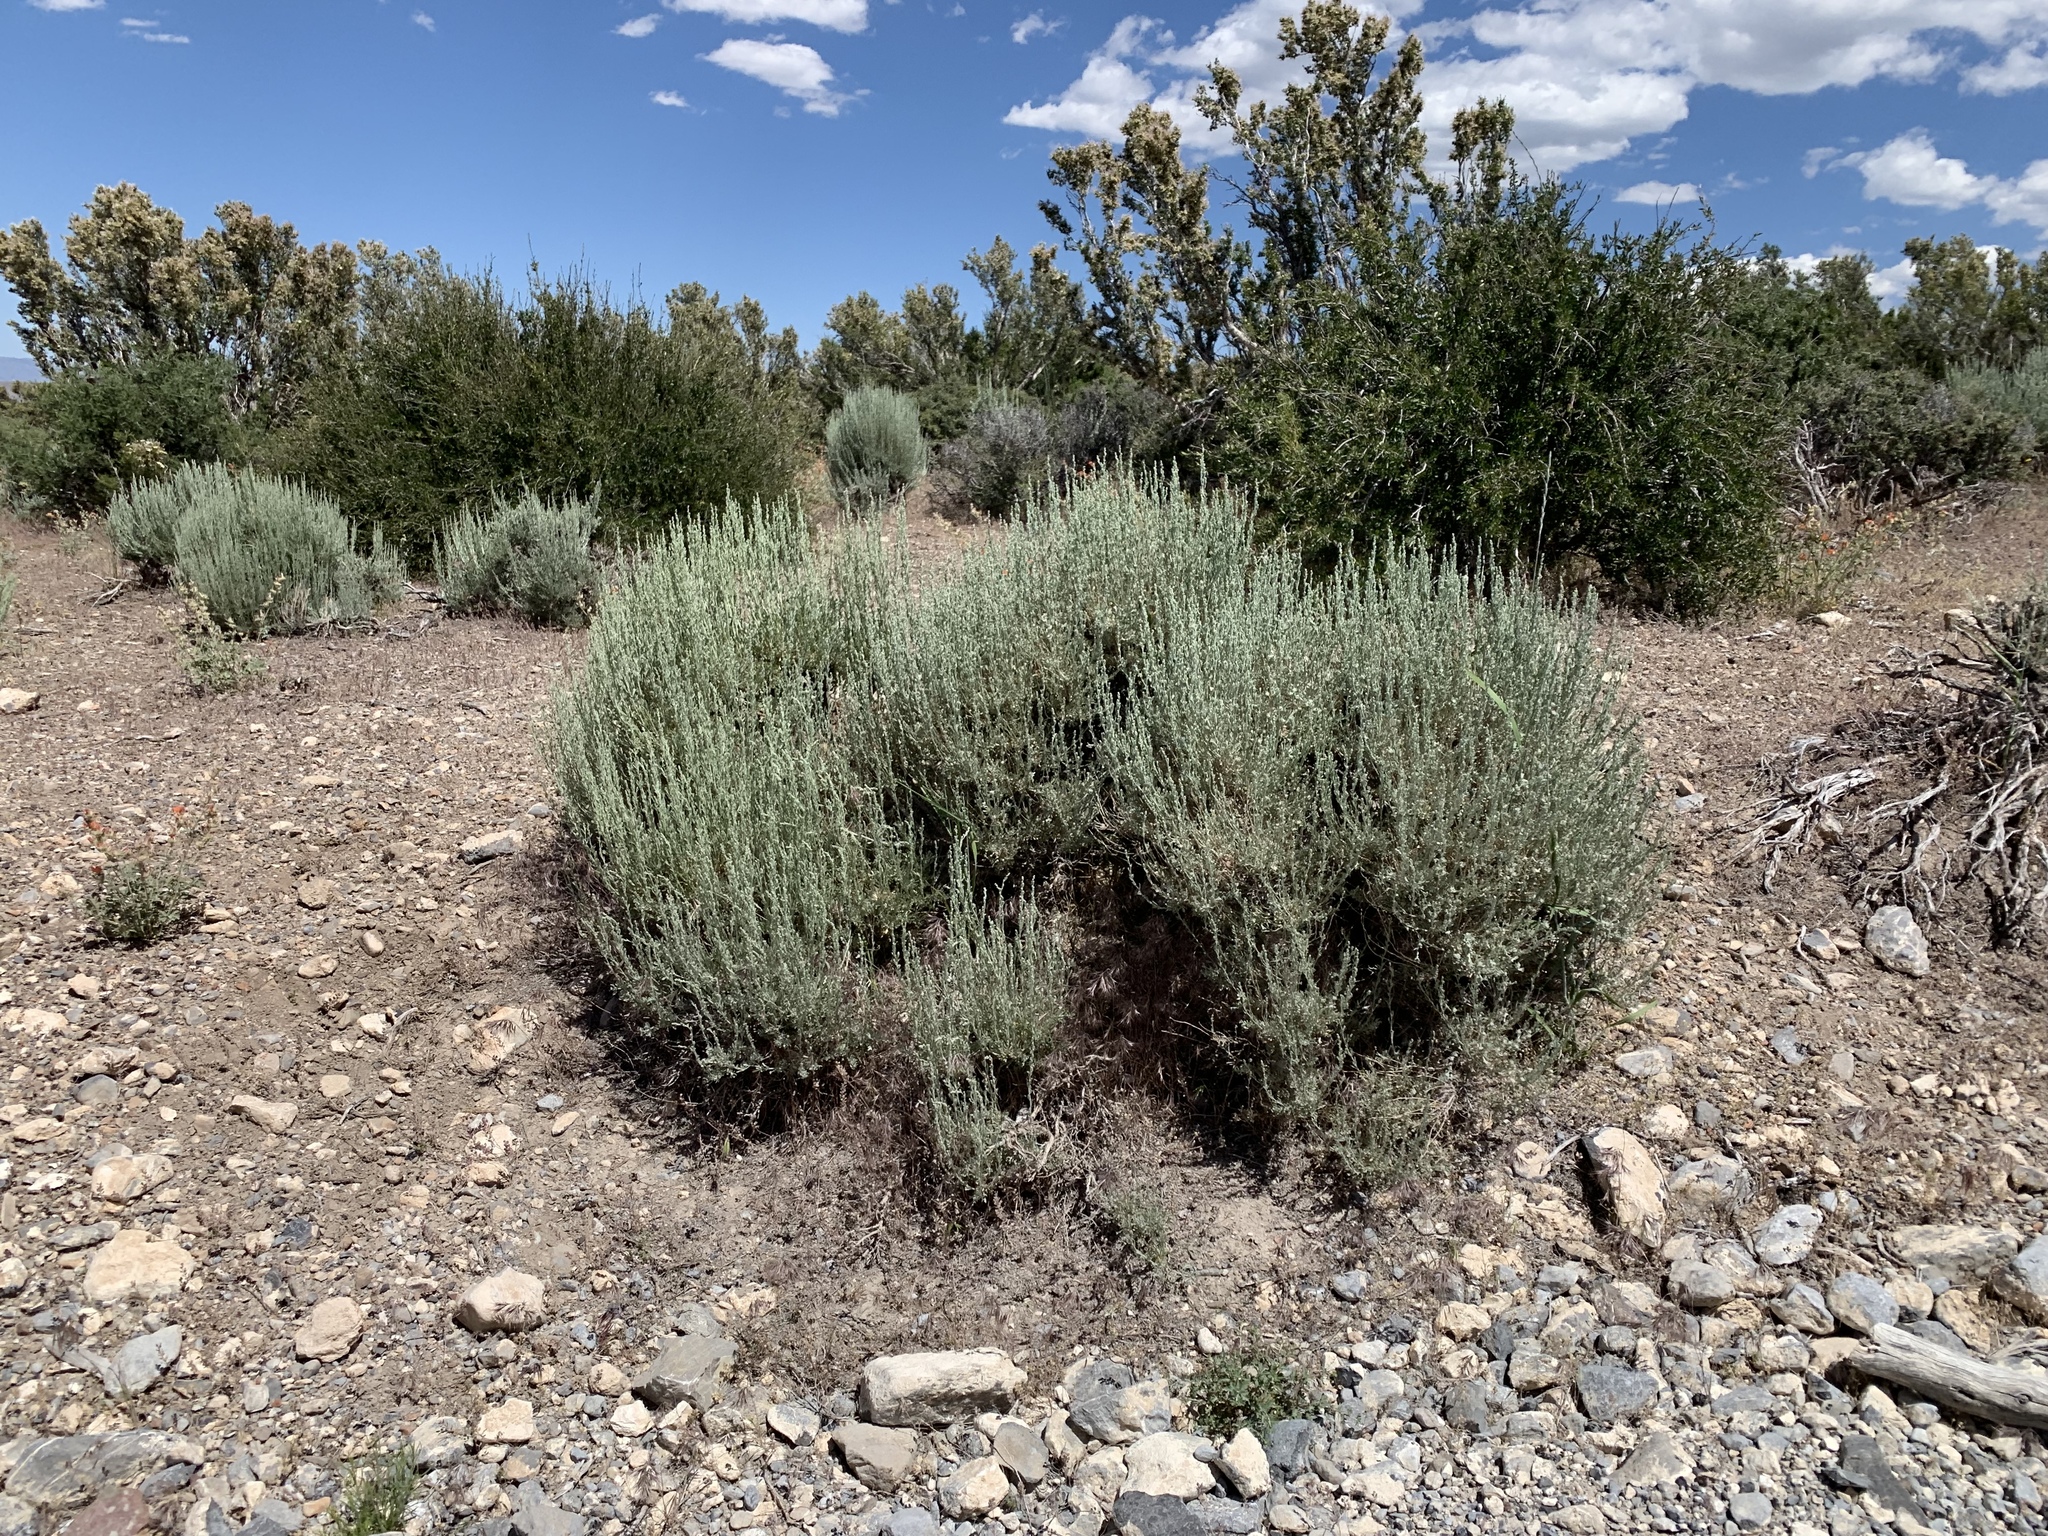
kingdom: Plantae
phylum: Tracheophyta
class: Magnoliopsida
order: Asterales
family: Asteraceae
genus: Artemisia
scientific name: Artemisia tridentata
